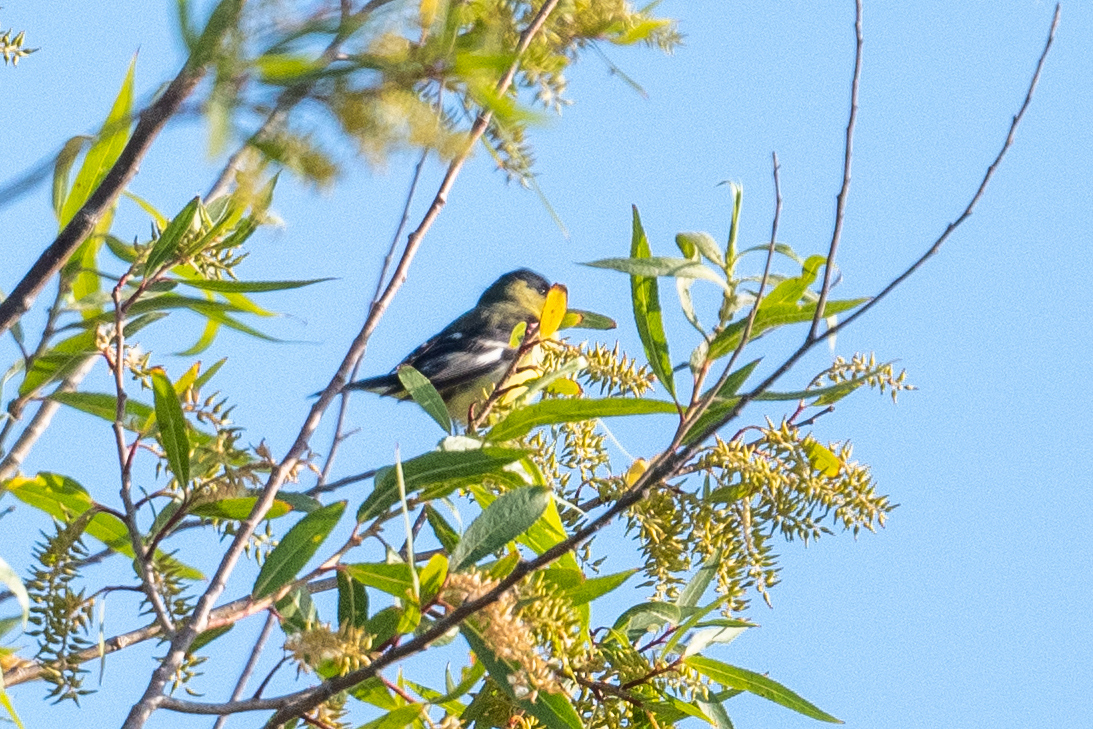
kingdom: Animalia
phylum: Chordata
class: Aves
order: Passeriformes
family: Fringillidae
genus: Spinus
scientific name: Spinus psaltria
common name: Lesser goldfinch
